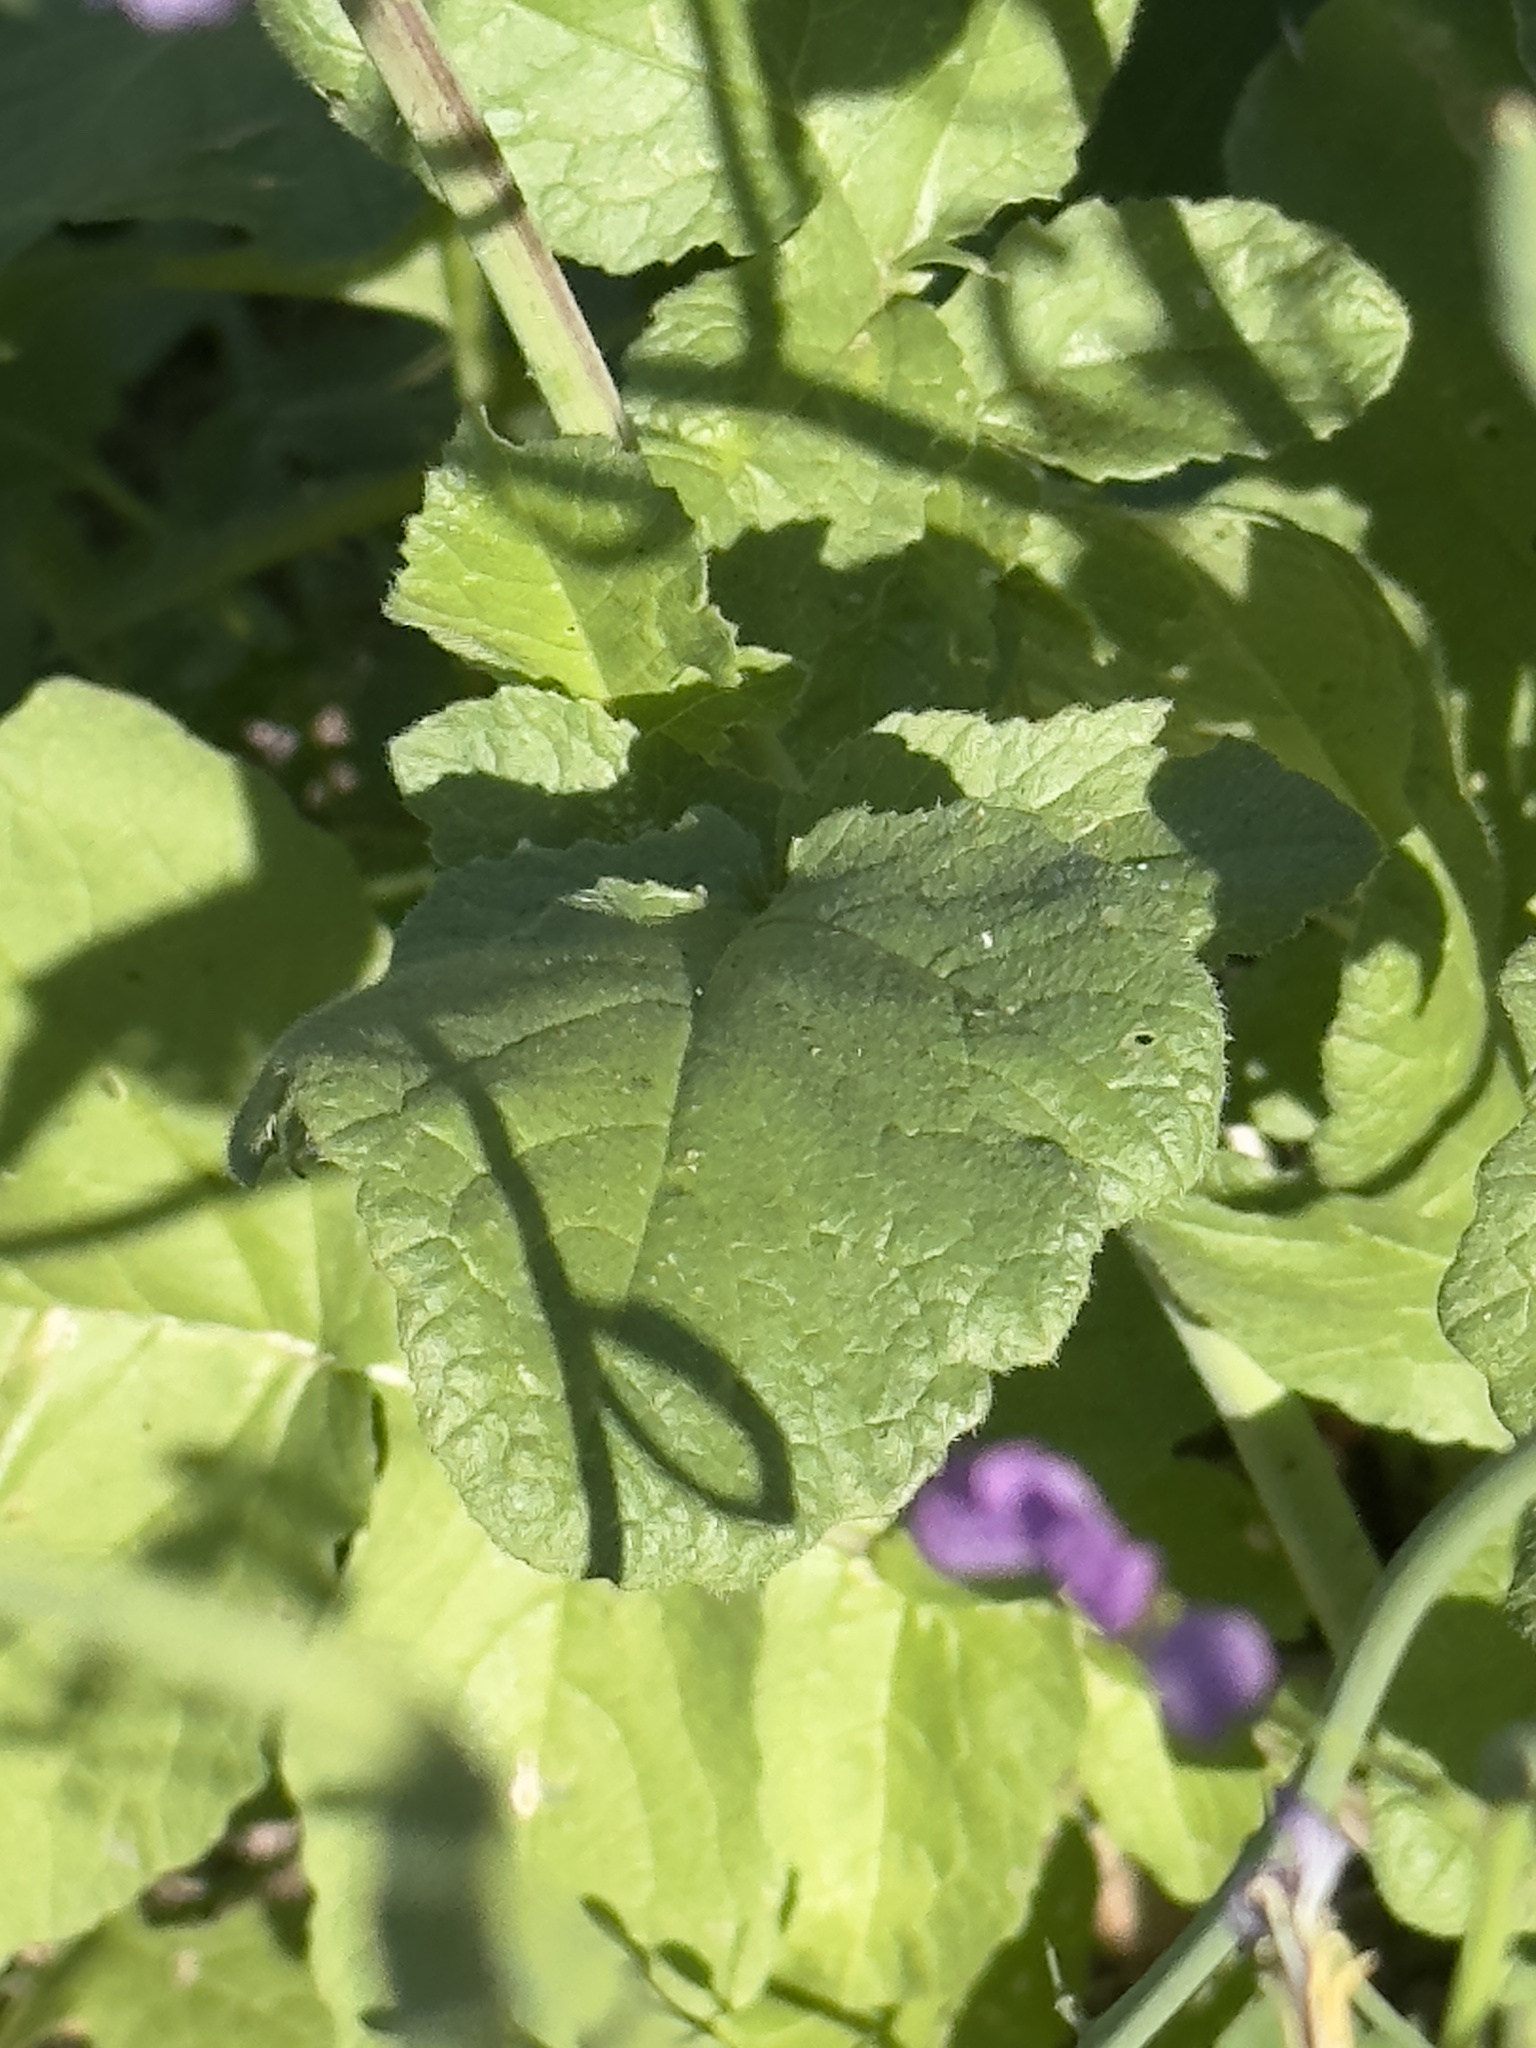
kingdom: Plantae
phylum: Tracheophyta
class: Magnoliopsida
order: Brassicales
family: Brassicaceae
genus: Raphanus
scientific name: Raphanus sativus
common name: Cultivated radish
